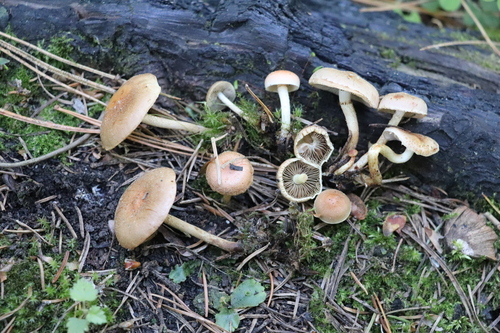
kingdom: Fungi
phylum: Basidiomycota
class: Agaricomycetes
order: Agaricales
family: Strophariaceae
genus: Pholiota
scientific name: Pholiota carbonaria
